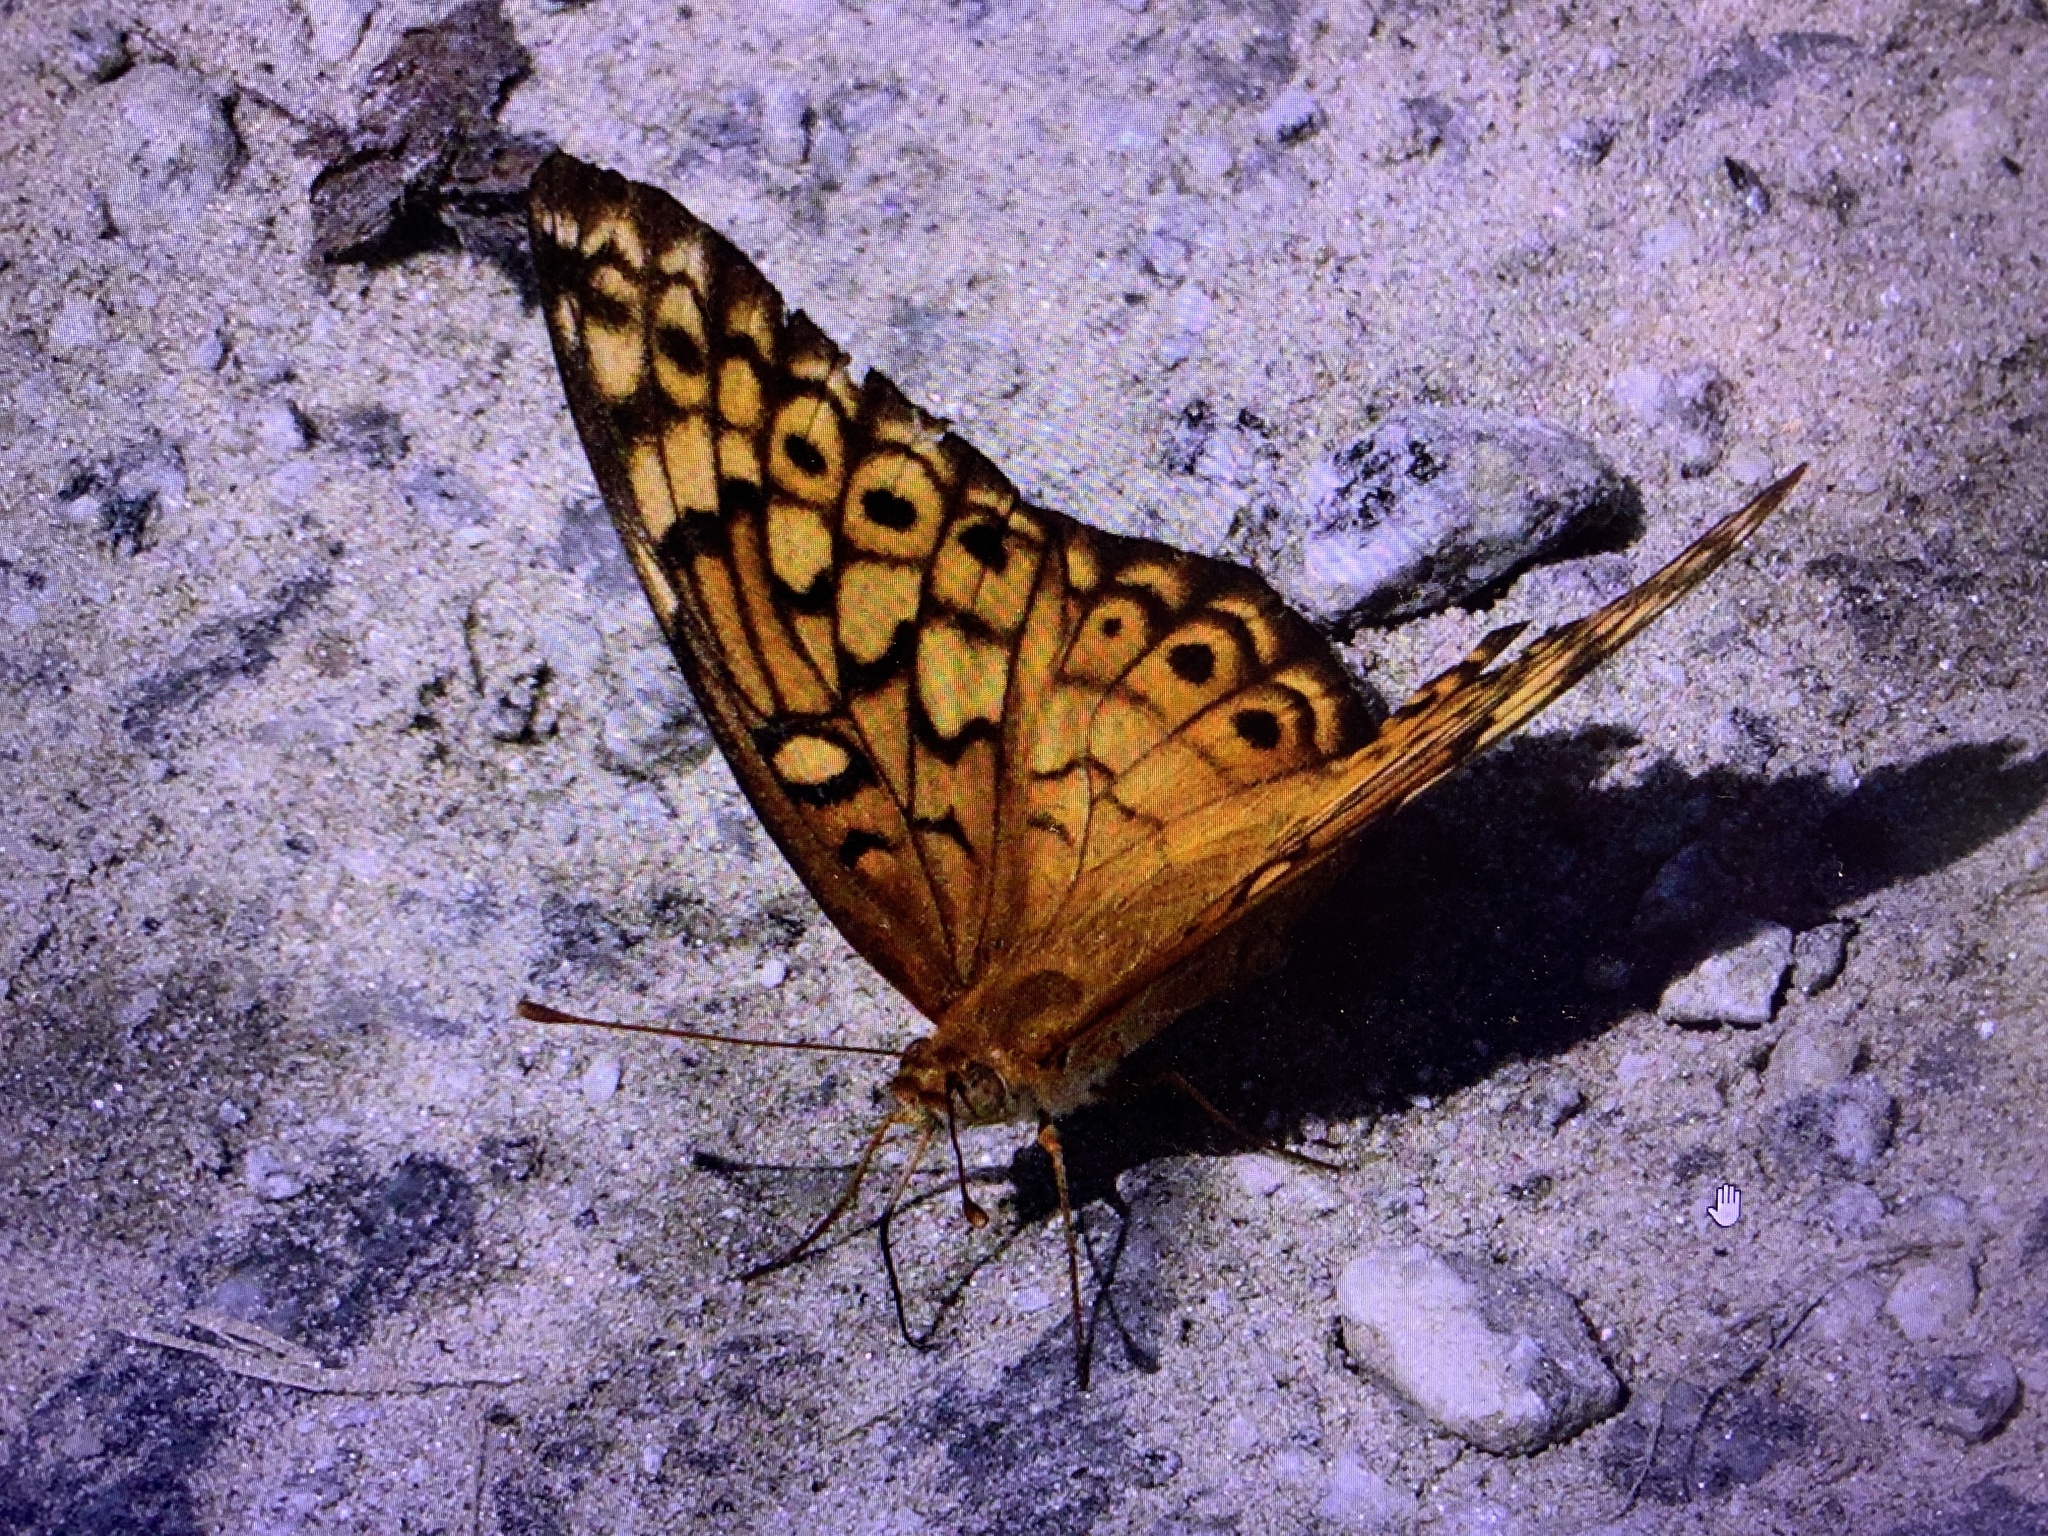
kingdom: Animalia
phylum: Arthropoda
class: Insecta
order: Lepidoptera
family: Nymphalidae
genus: Euptoieta
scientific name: Euptoieta claudia
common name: Variegated fritillary
